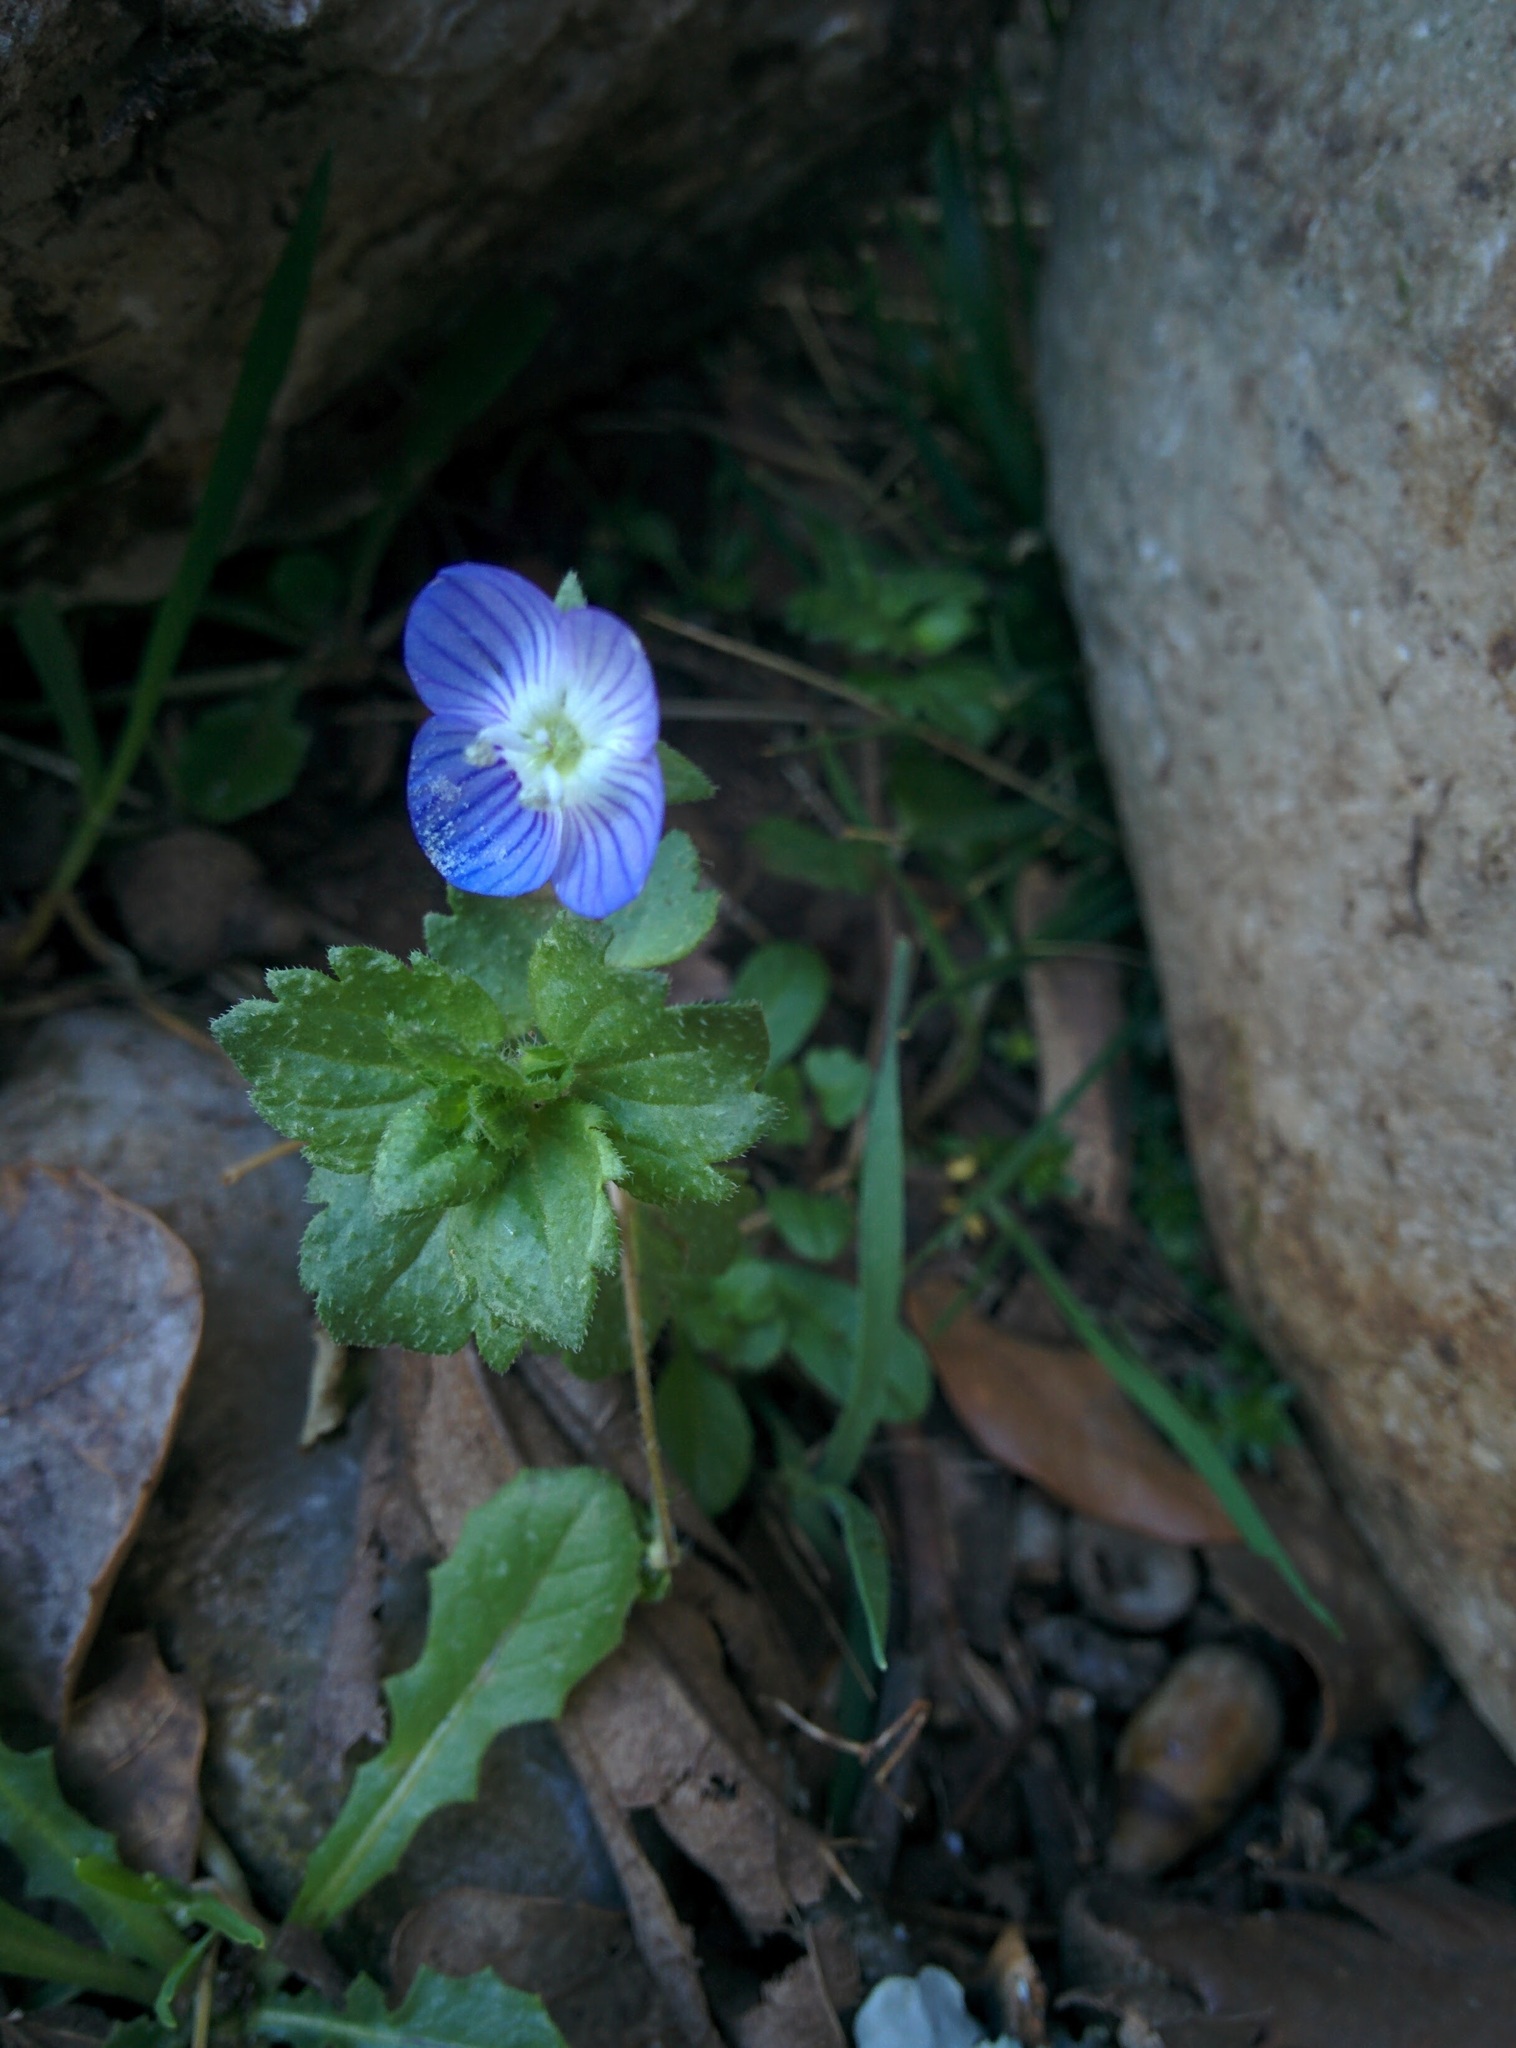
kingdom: Plantae
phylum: Tracheophyta
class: Magnoliopsida
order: Lamiales
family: Plantaginaceae
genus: Veronica
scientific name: Veronica persica
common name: Common field-speedwell
